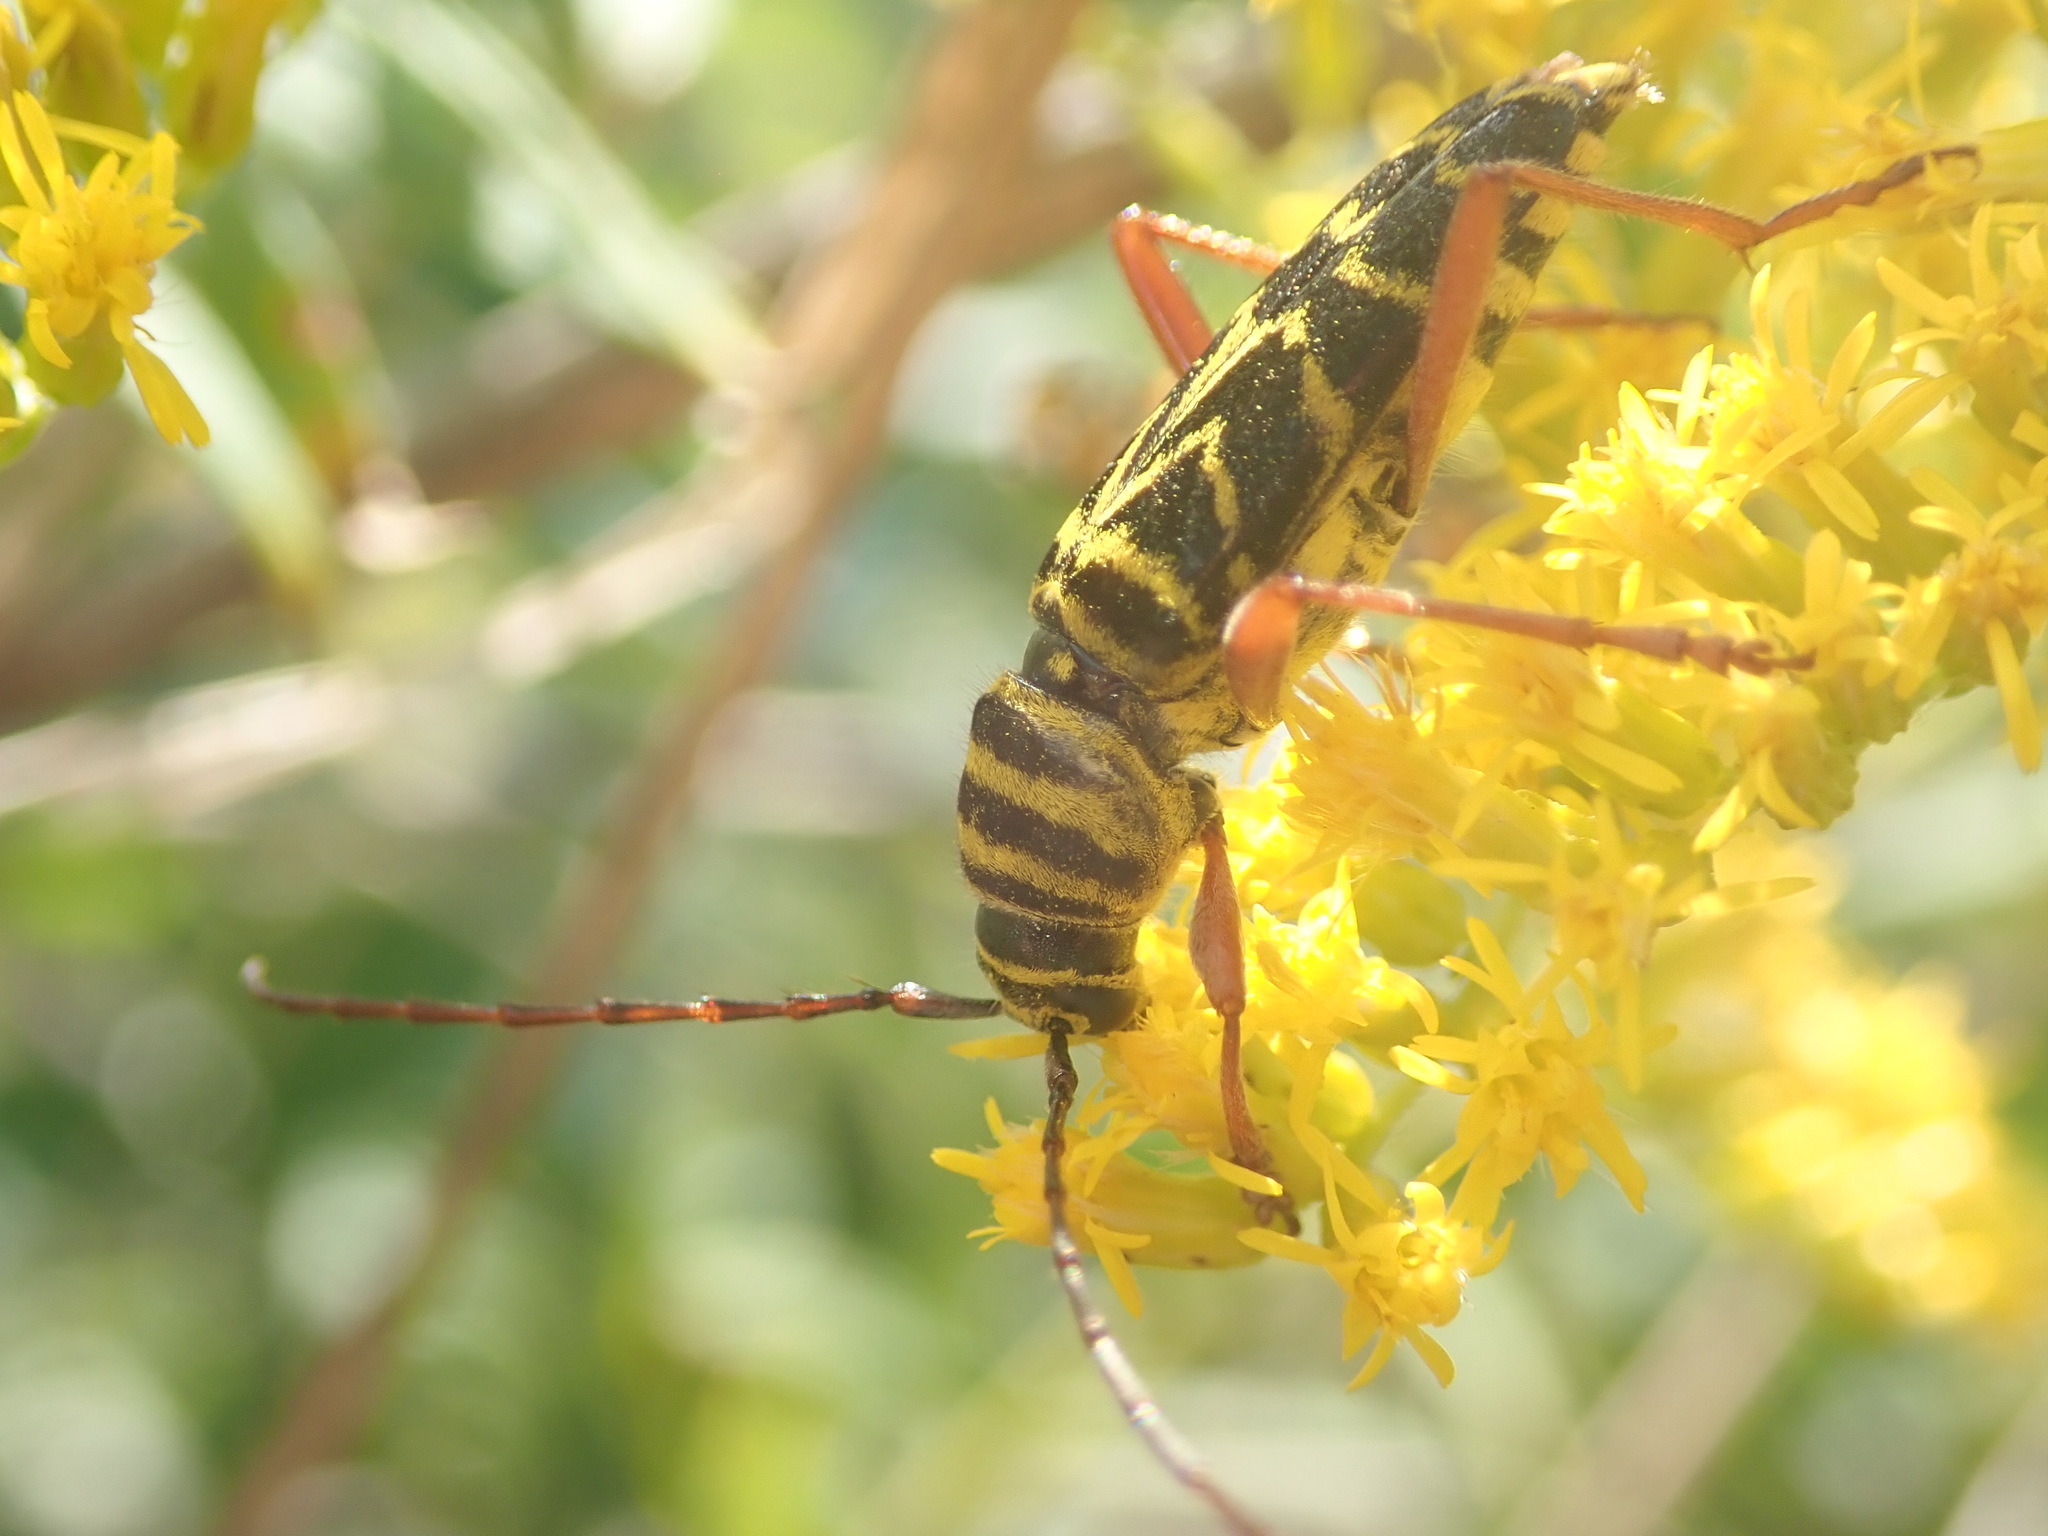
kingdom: Animalia
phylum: Arthropoda
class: Insecta
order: Coleoptera
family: Cerambycidae
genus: Megacyllene
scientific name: Megacyllene robiniae
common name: Locust borer
